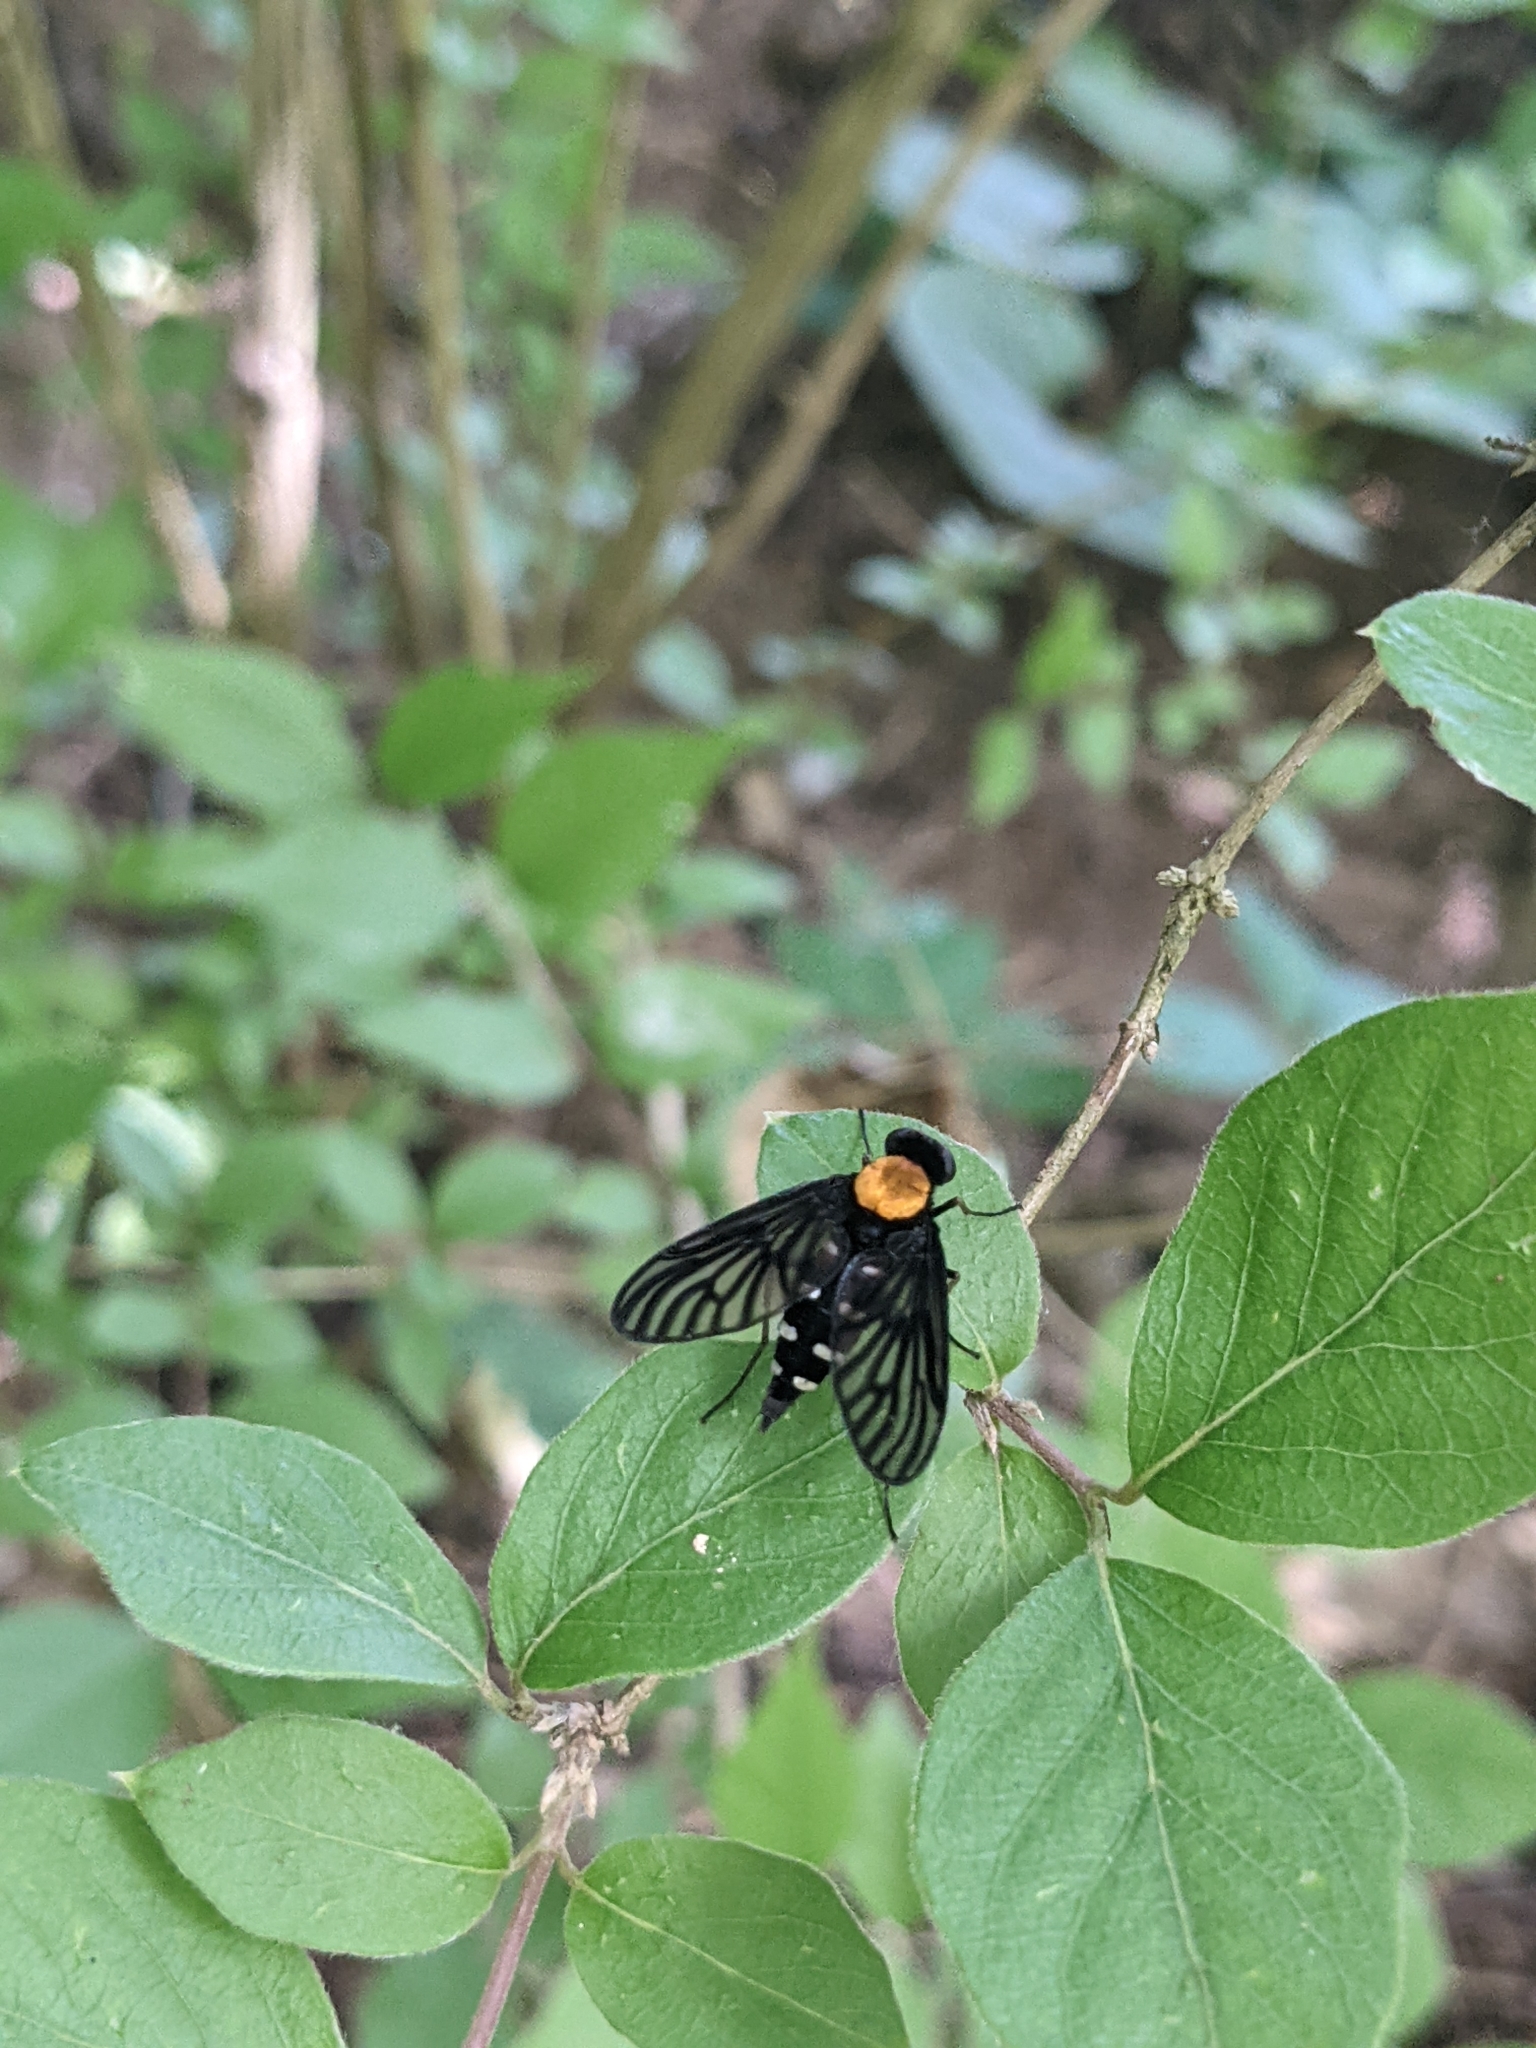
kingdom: Animalia
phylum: Arthropoda
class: Insecta
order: Diptera
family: Rhagionidae
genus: Chrysopilus
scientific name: Chrysopilus thoracicus
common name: Golden-backed snipe fly
